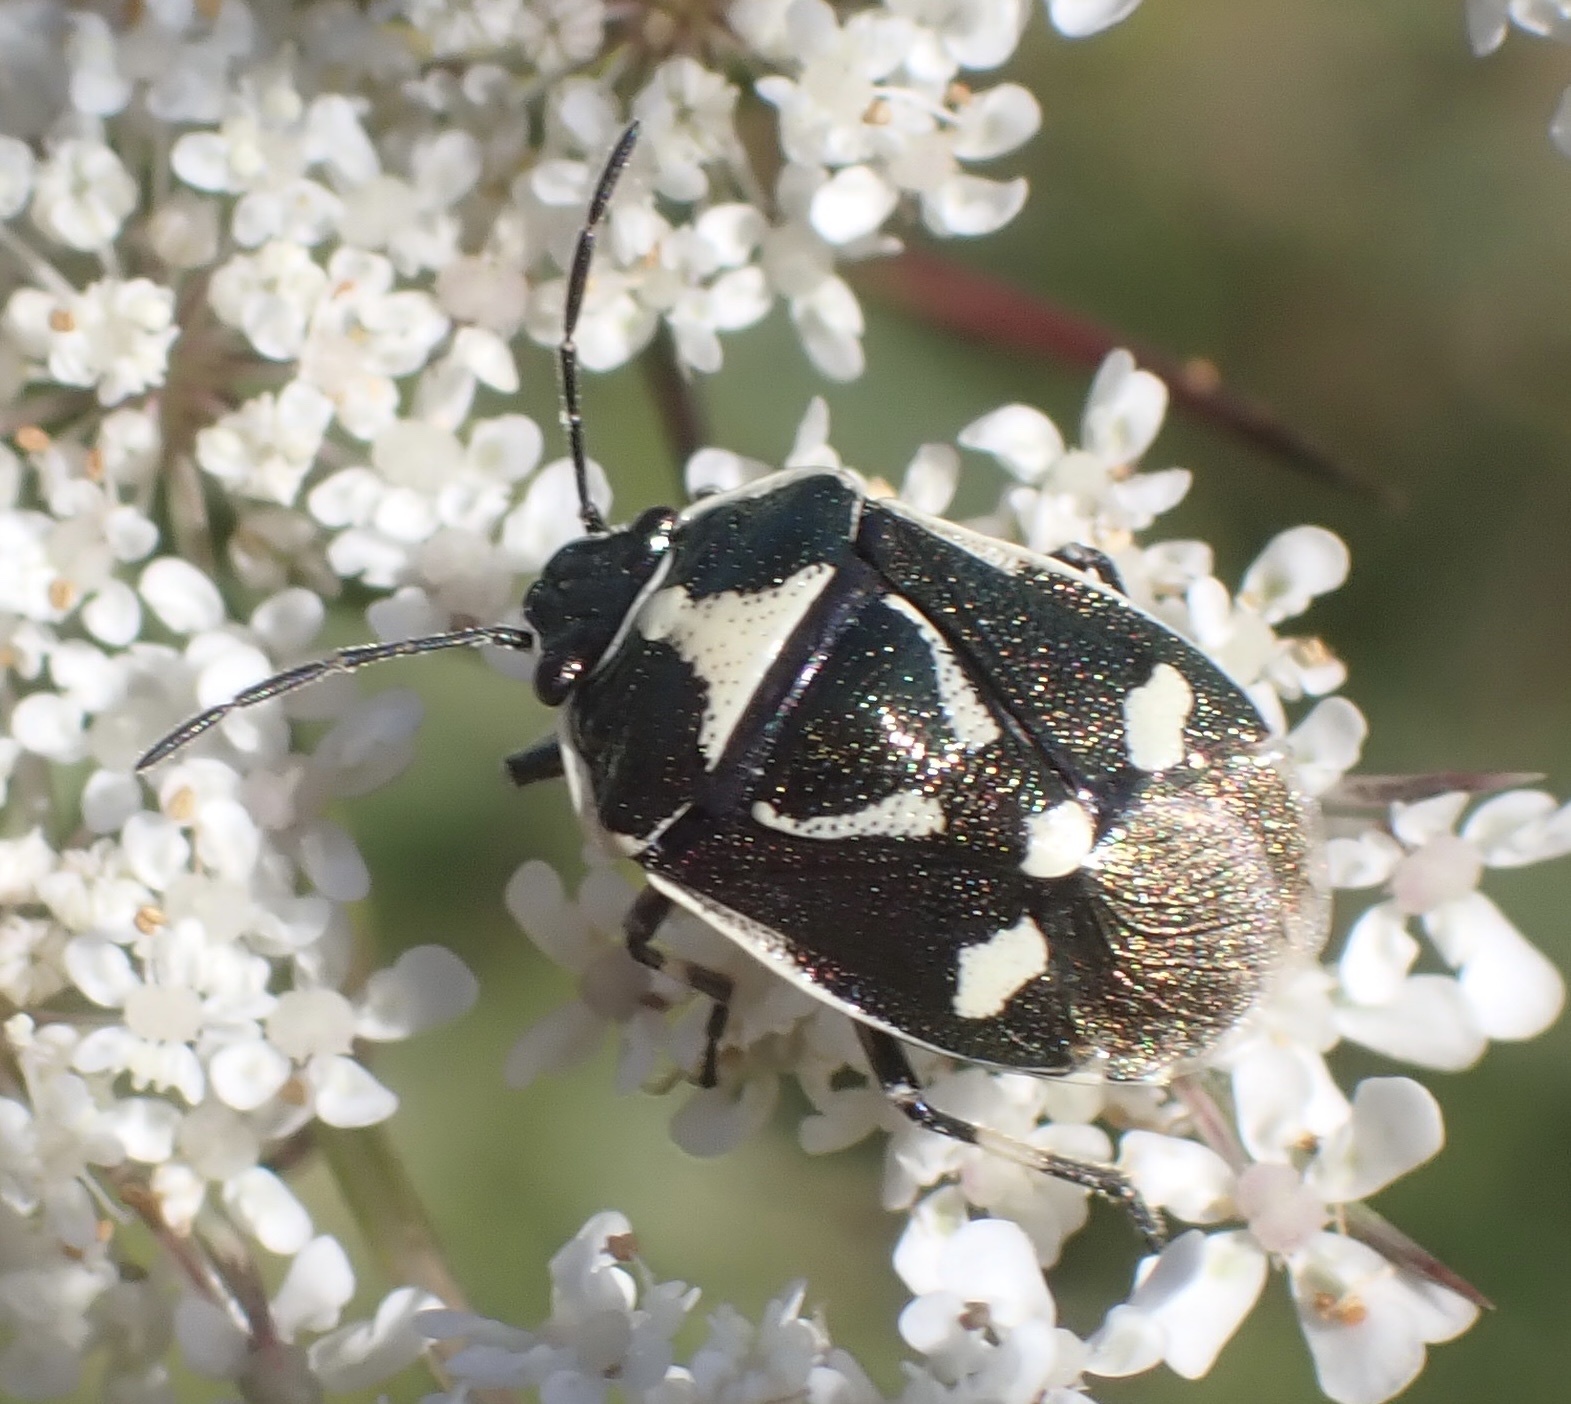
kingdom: Animalia
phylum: Arthropoda
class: Insecta
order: Hemiptera
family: Pentatomidae
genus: Eurydema
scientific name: Eurydema oleracea
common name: Cabbage bug
